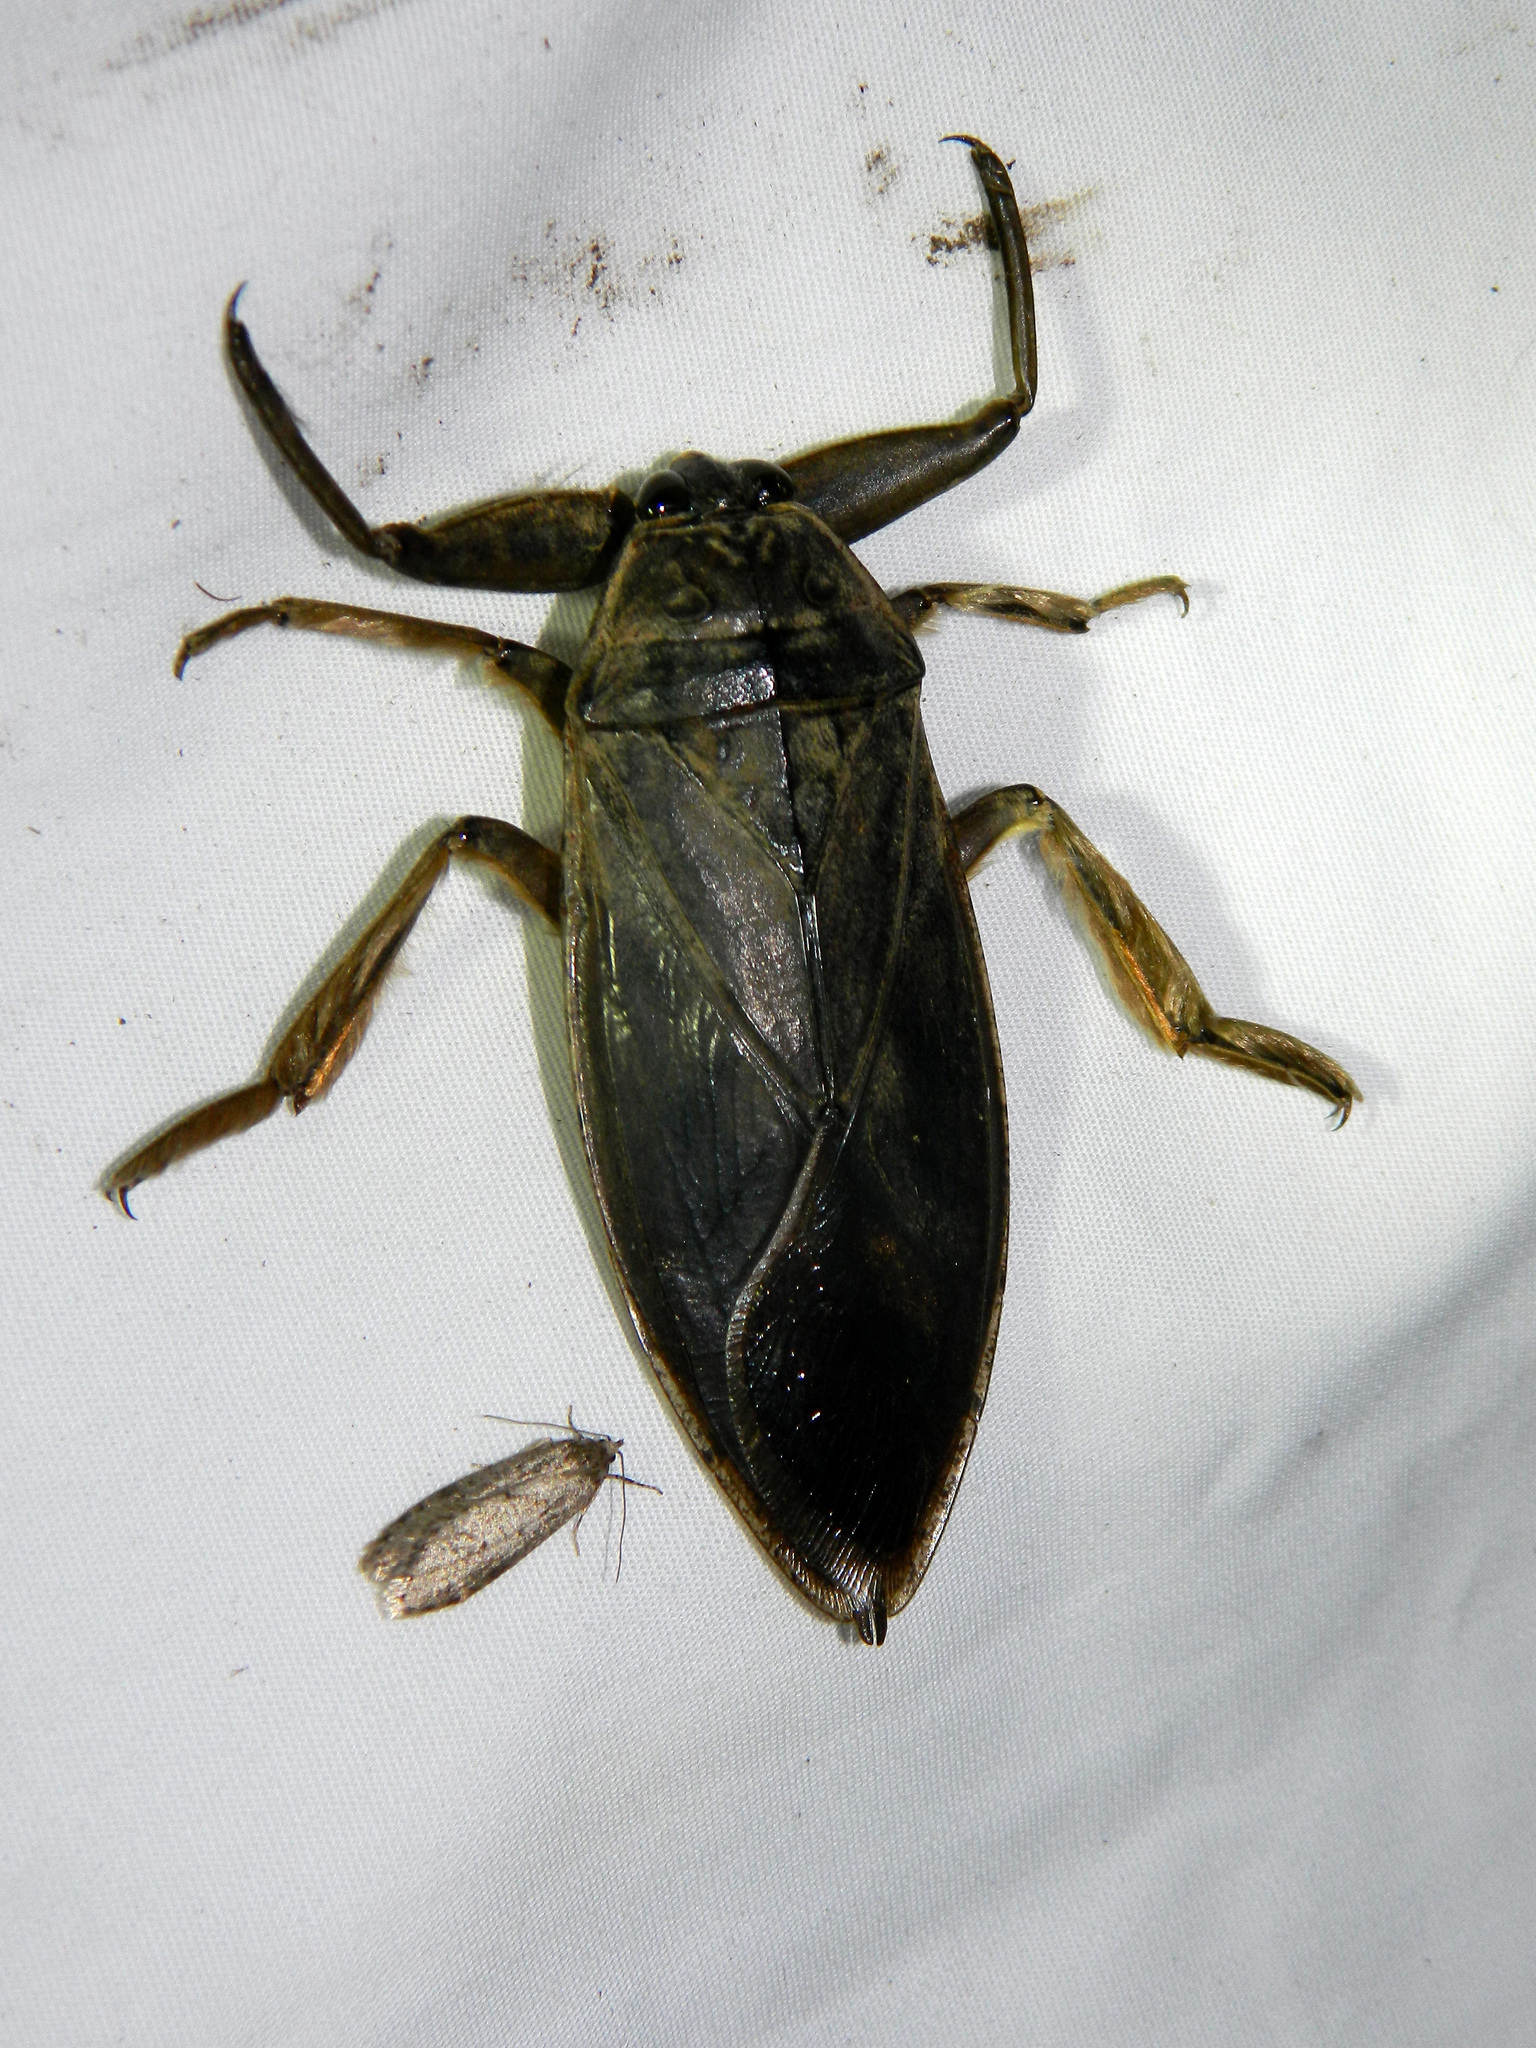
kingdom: Animalia
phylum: Arthropoda
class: Insecta
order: Hemiptera
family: Belostomatidae
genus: Lethocerus
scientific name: Lethocerus americanus
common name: Giant water bug
